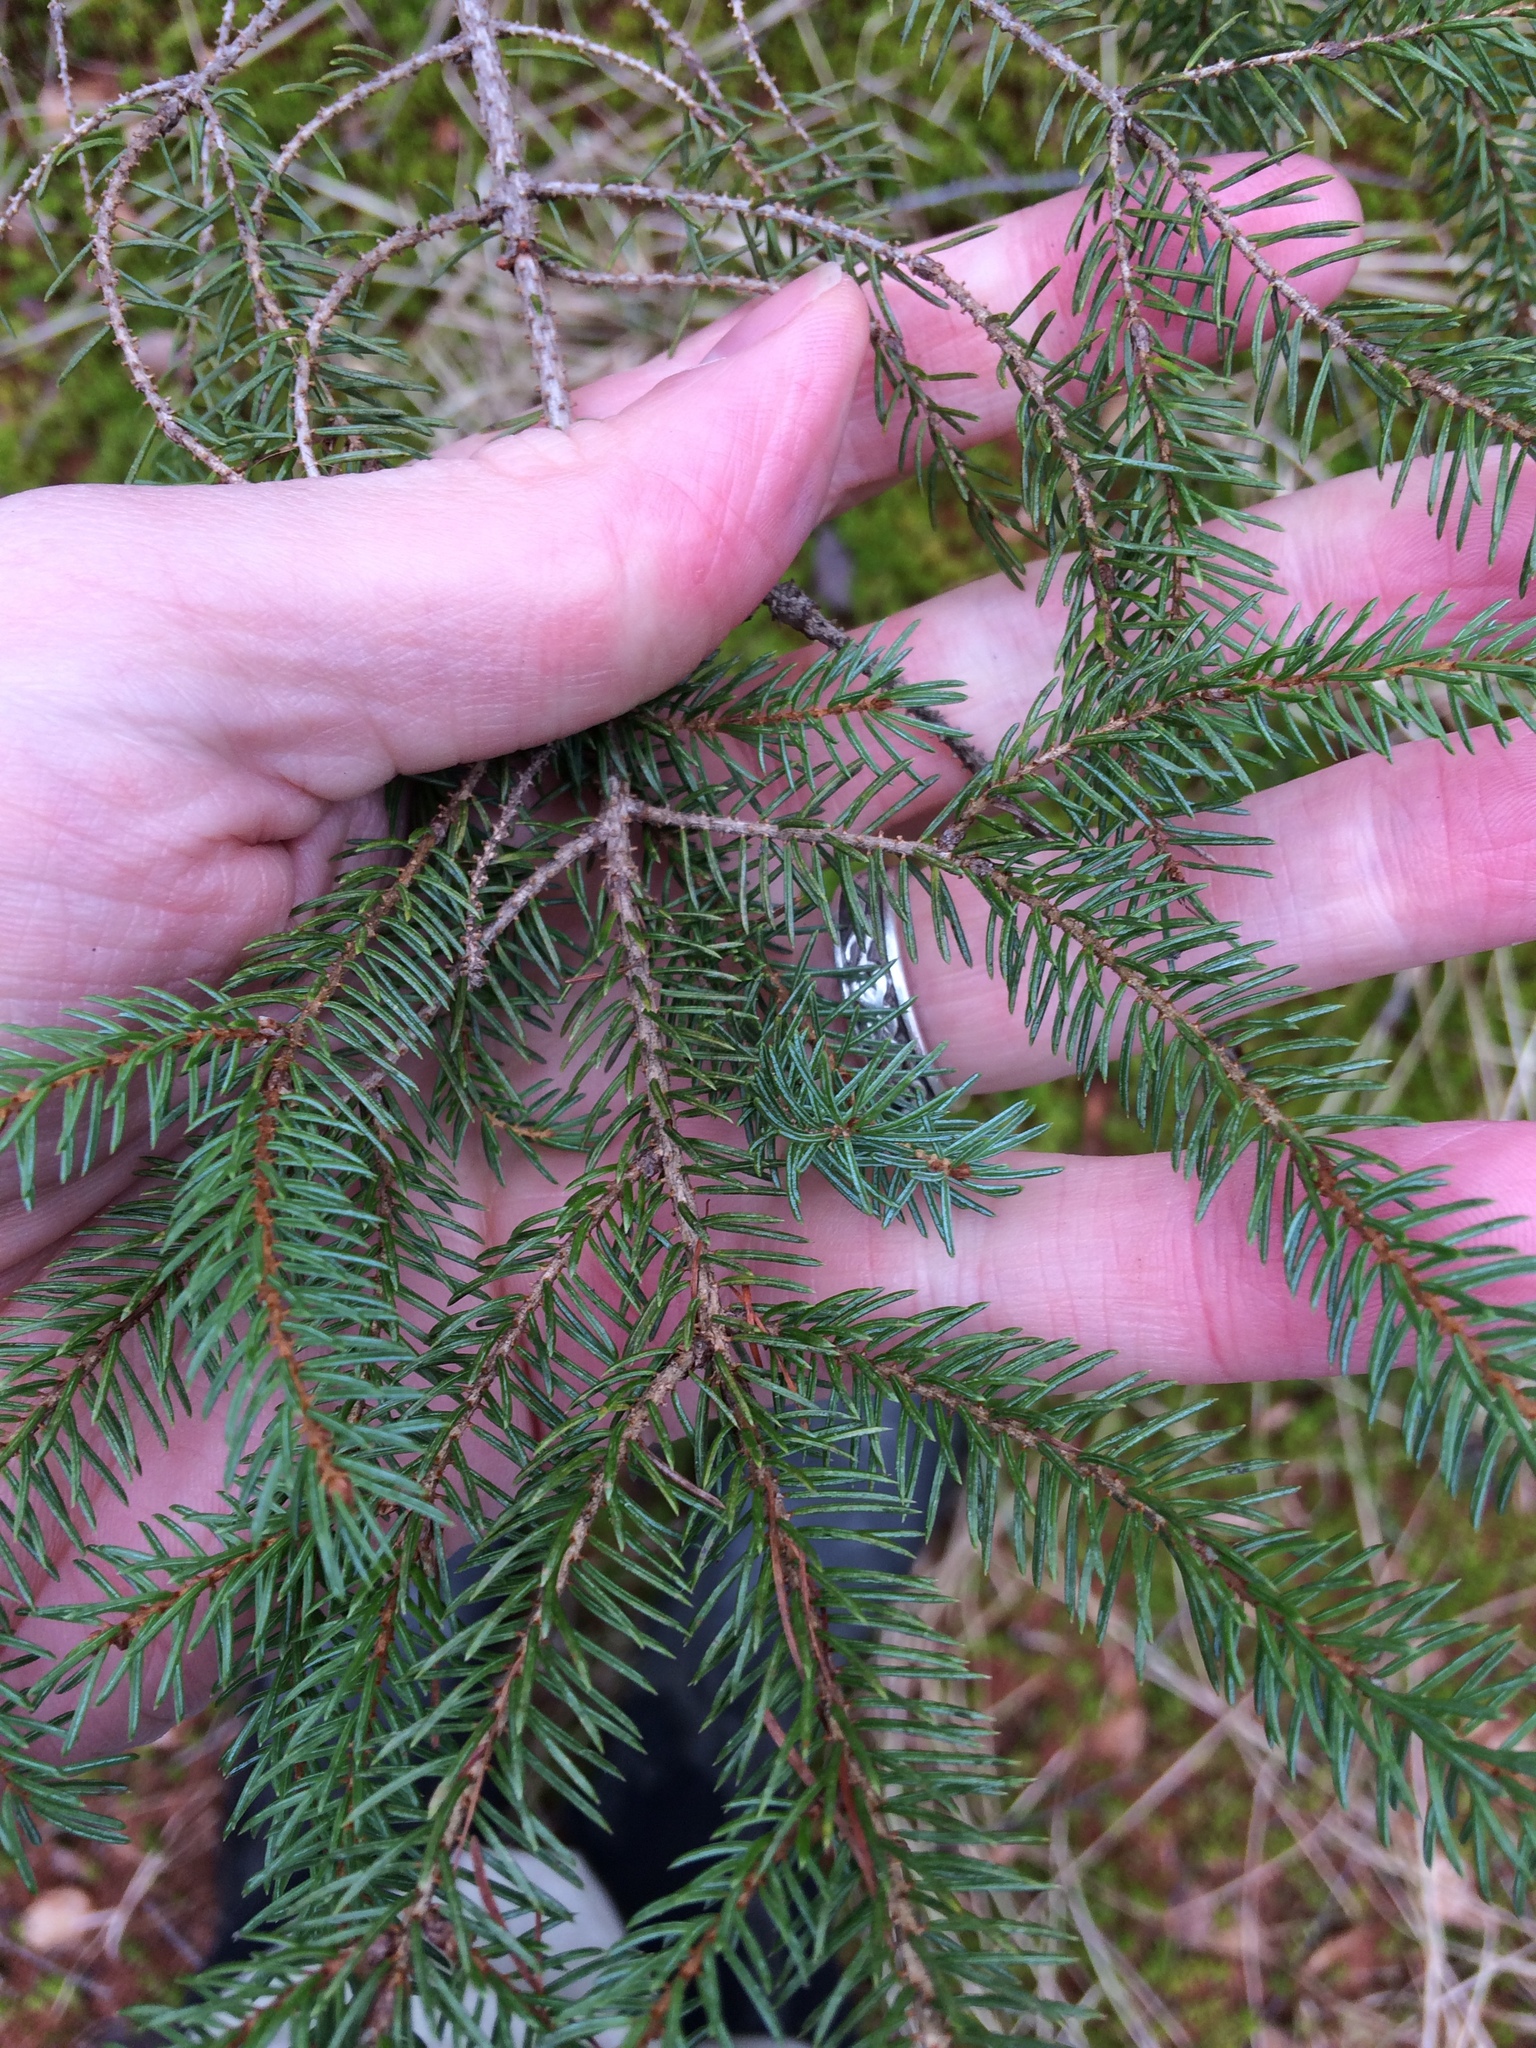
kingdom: Plantae
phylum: Tracheophyta
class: Pinopsida
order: Pinales
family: Pinaceae
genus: Picea
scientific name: Picea mariana
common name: Black spruce
